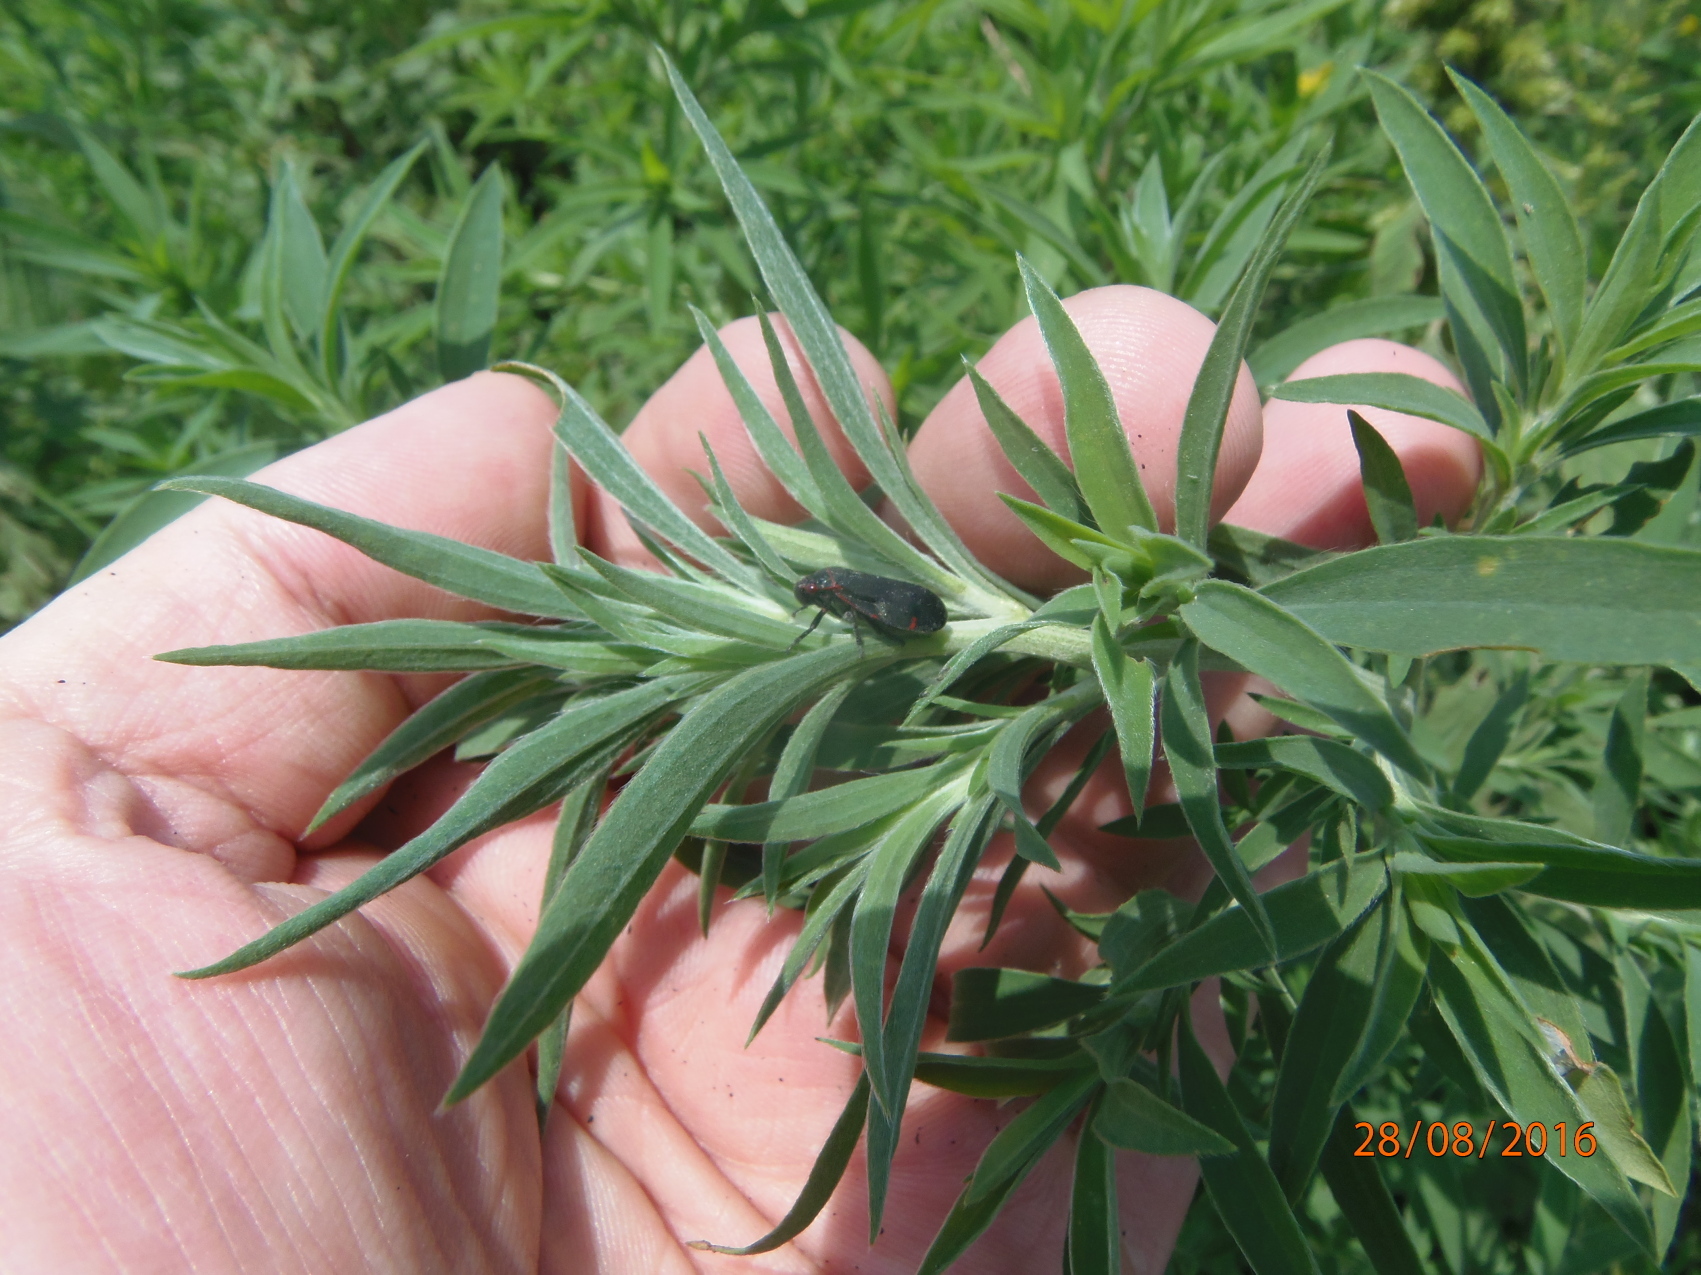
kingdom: Animalia
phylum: Arthropoda
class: Insecta
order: Hemiptera
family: Cercopidae
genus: Prosapia
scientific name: Prosapia
